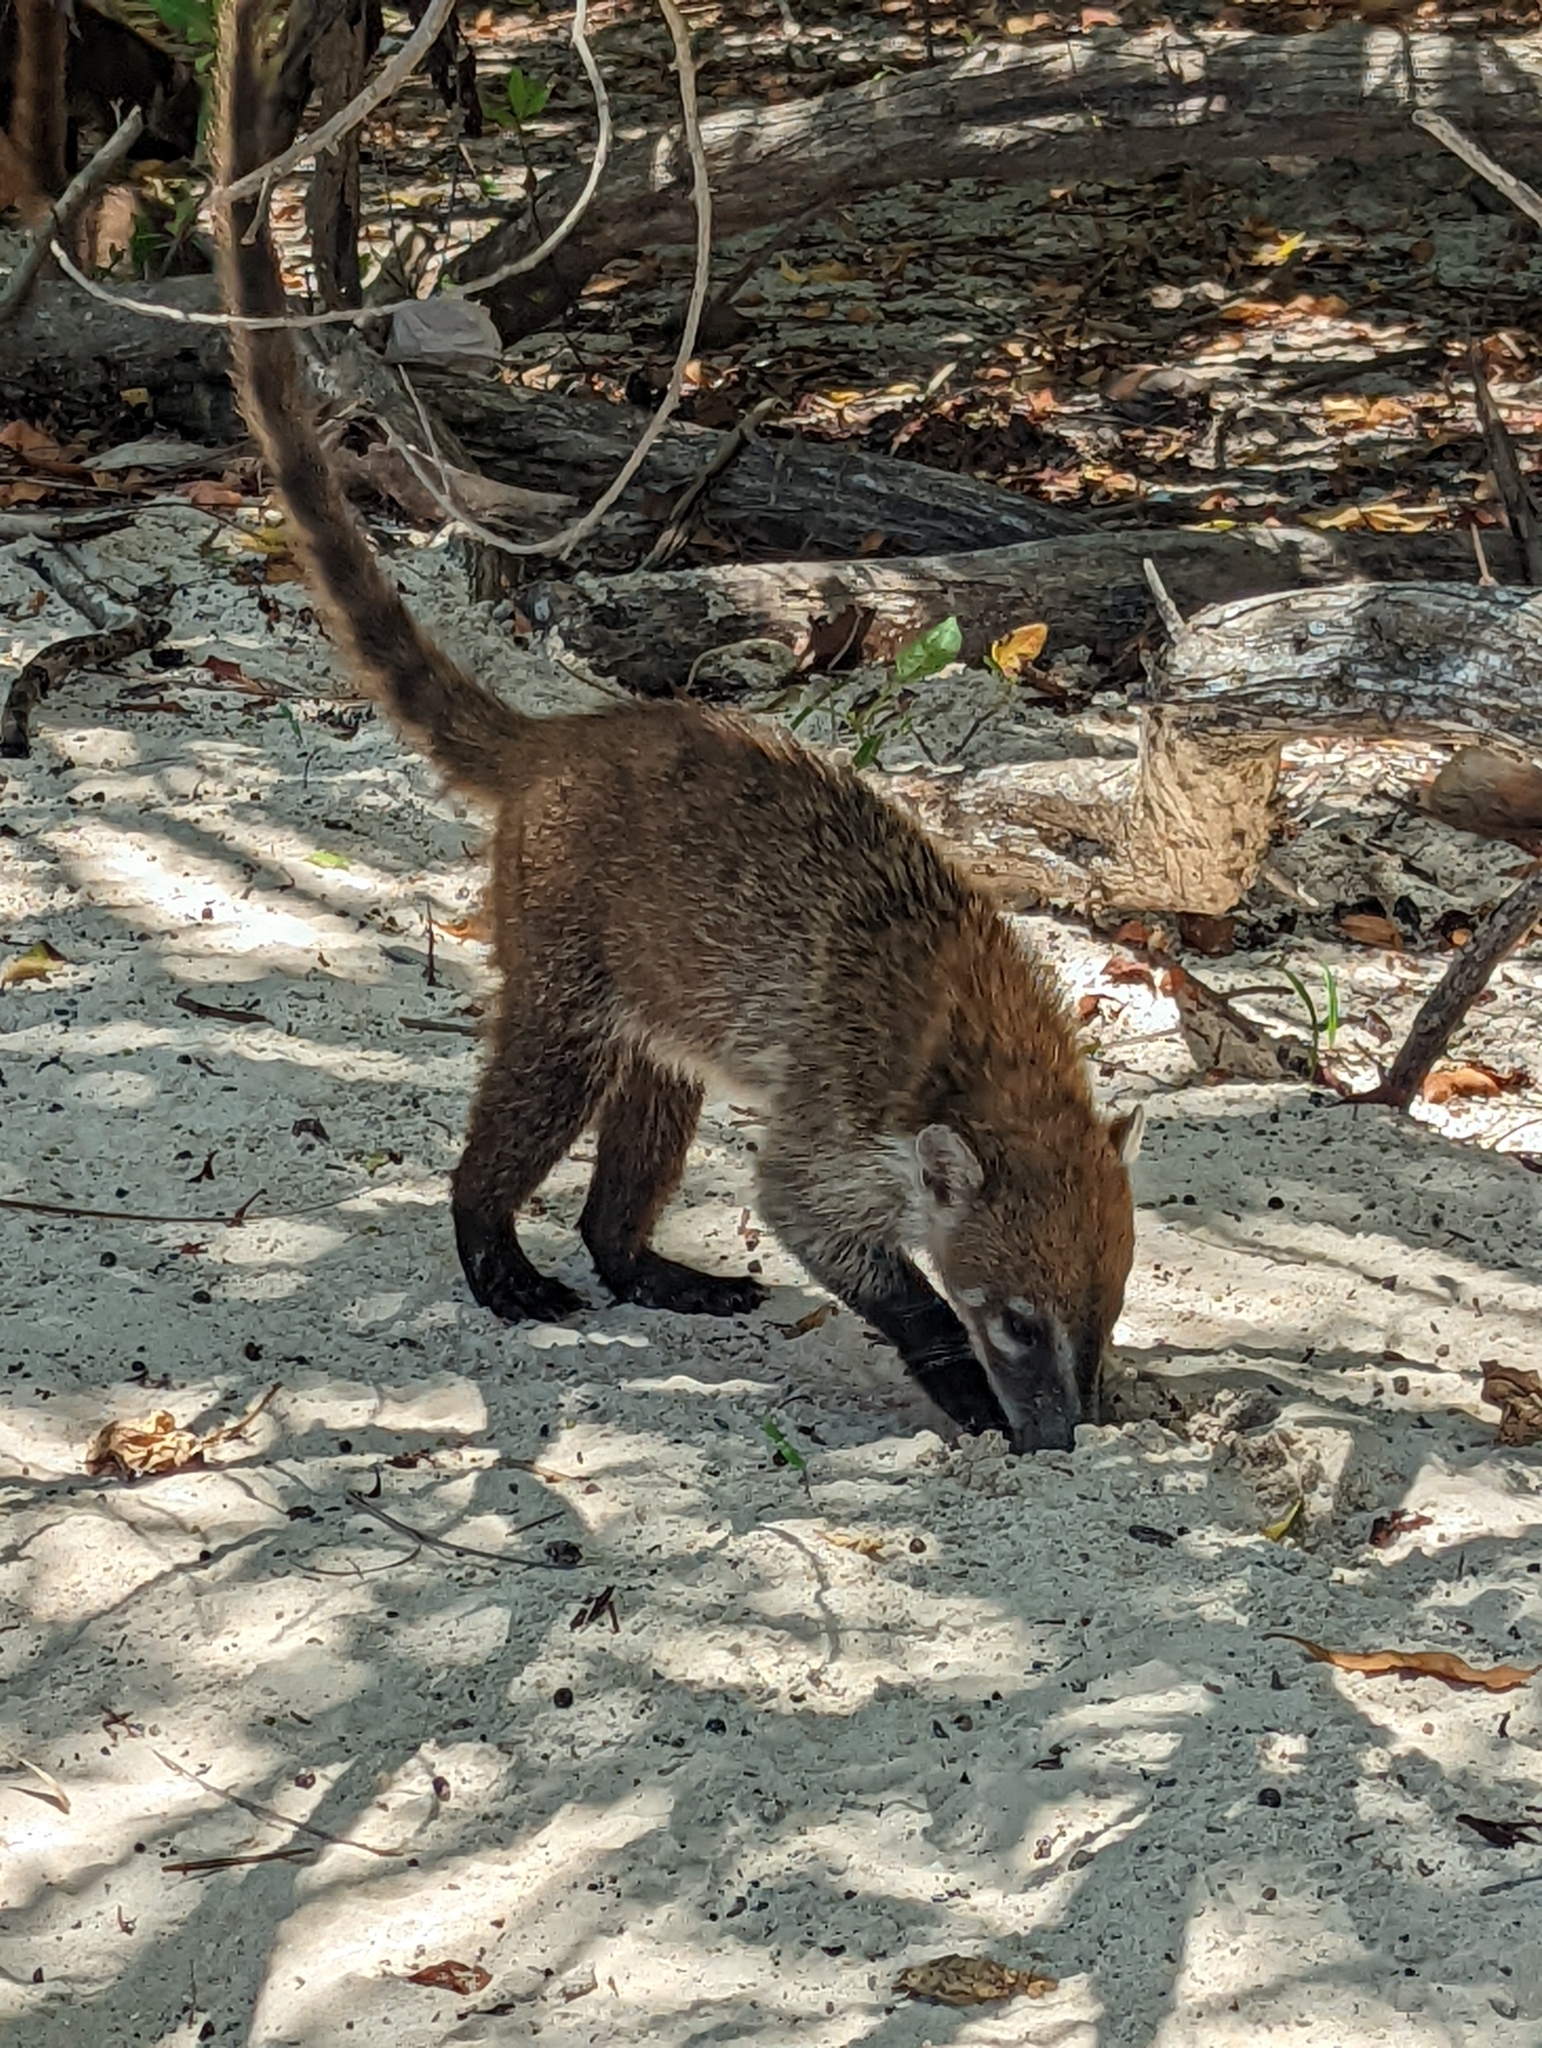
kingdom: Animalia
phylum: Chordata
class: Mammalia
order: Carnivora
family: Procyonidae
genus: Nasua
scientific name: Nasua narica
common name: White-nosed coati
